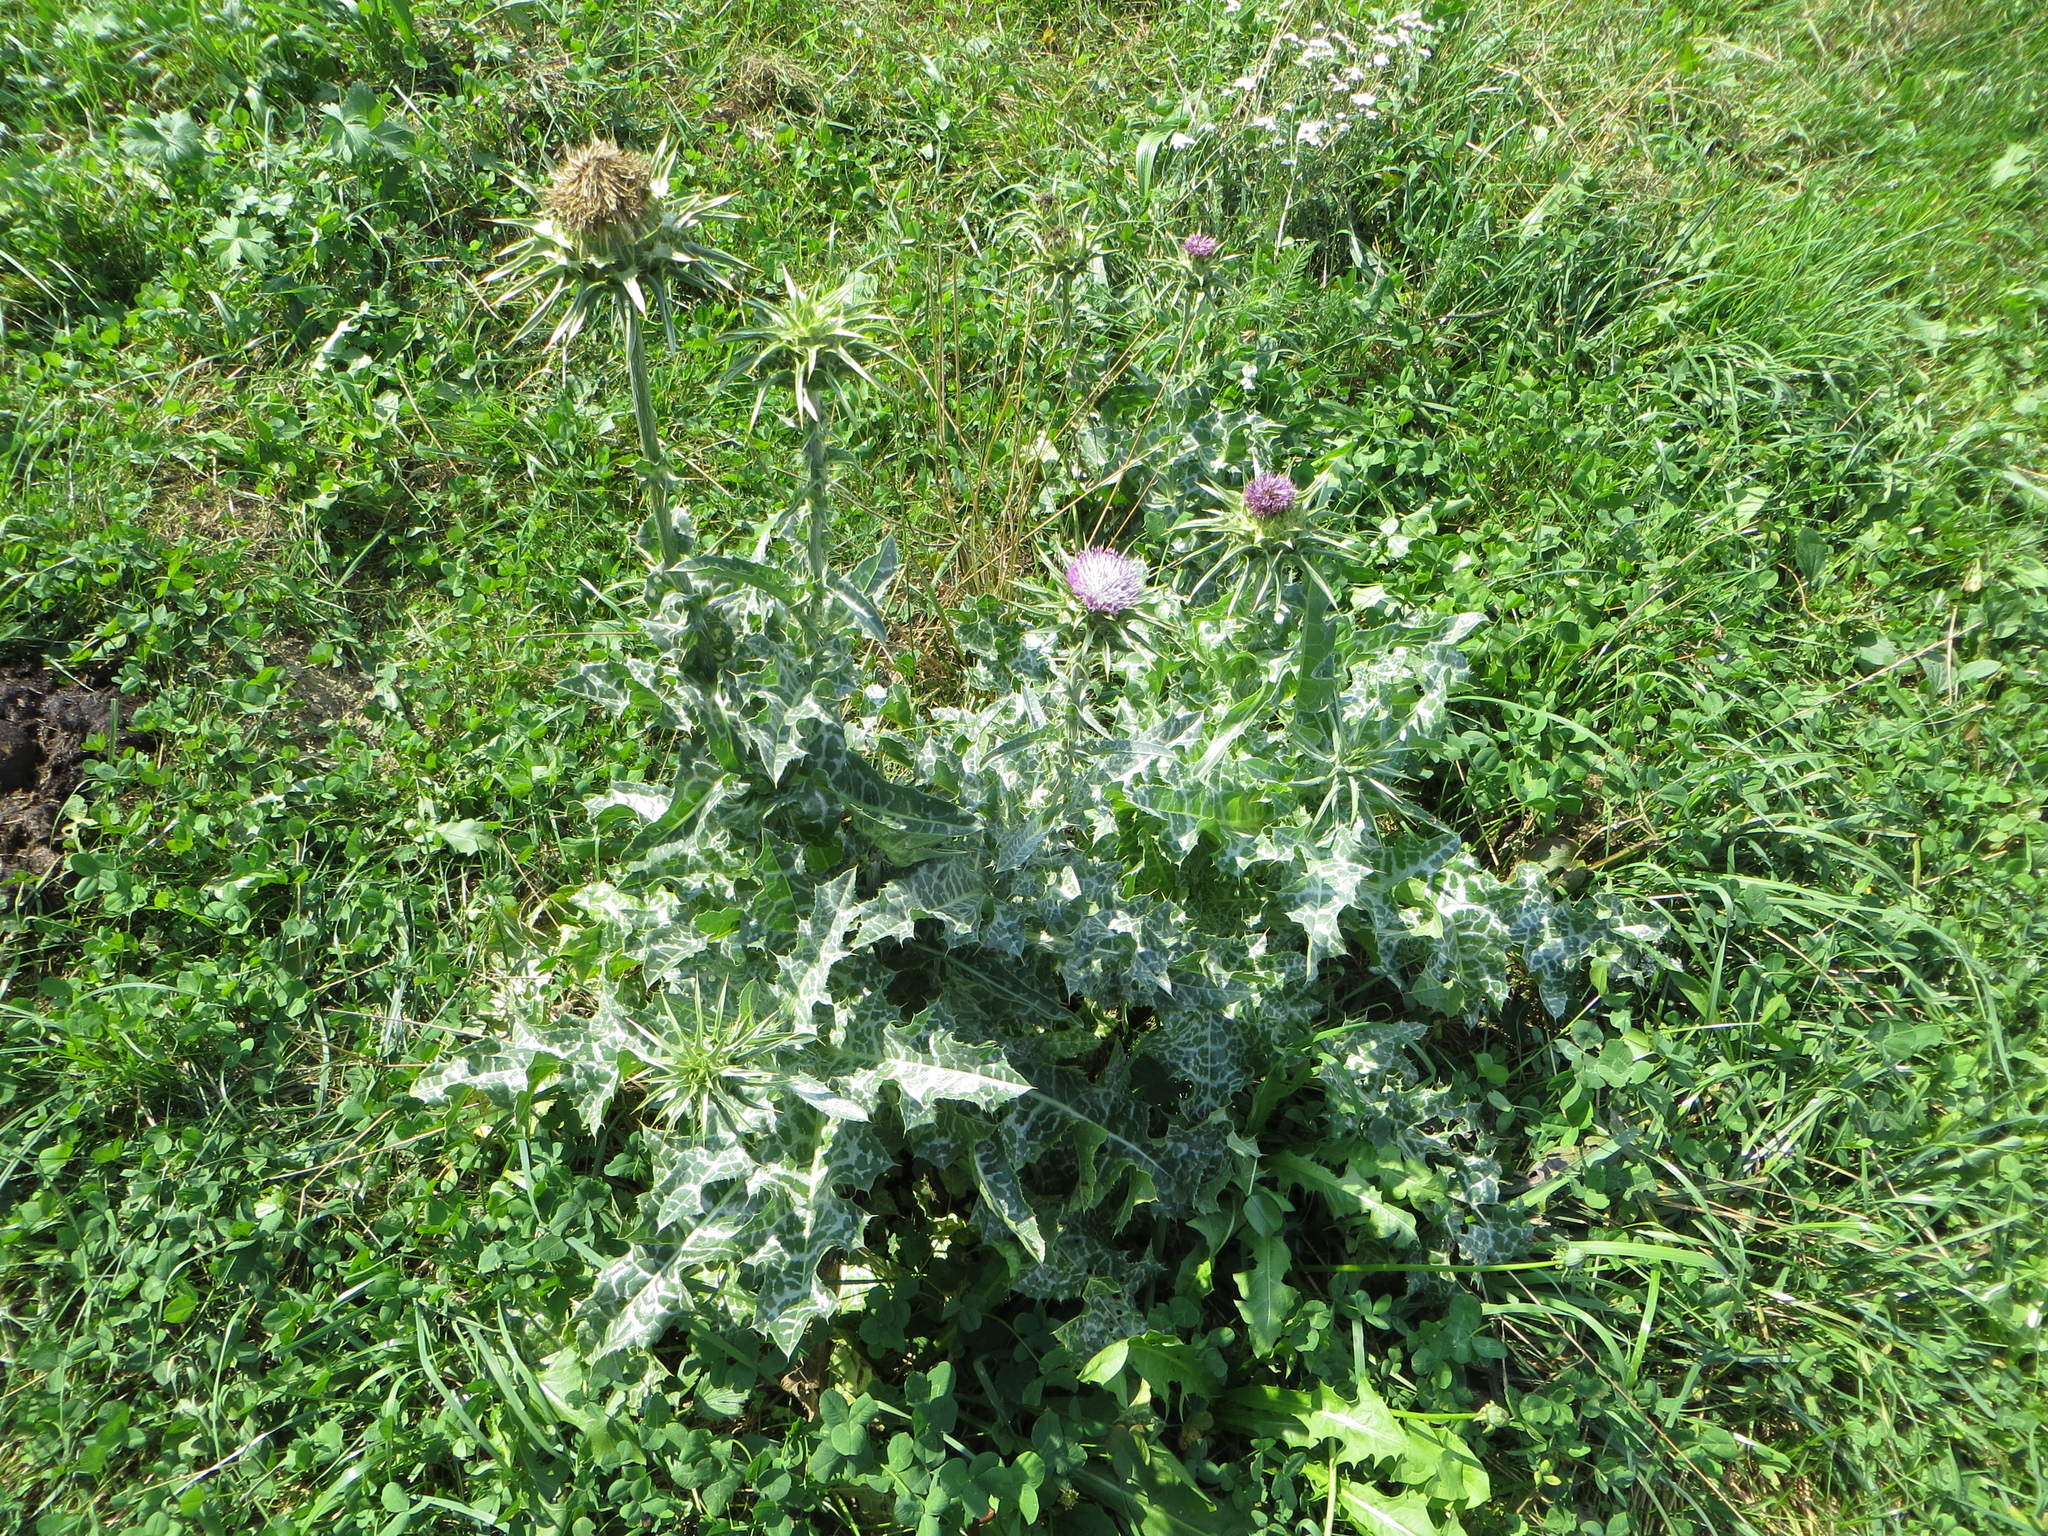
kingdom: Plantae
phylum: Tracheophyta
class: Magnoliopsida
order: Asterales
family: Asteraceae
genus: Silybum
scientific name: Silybum marianum
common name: Milk thistle
